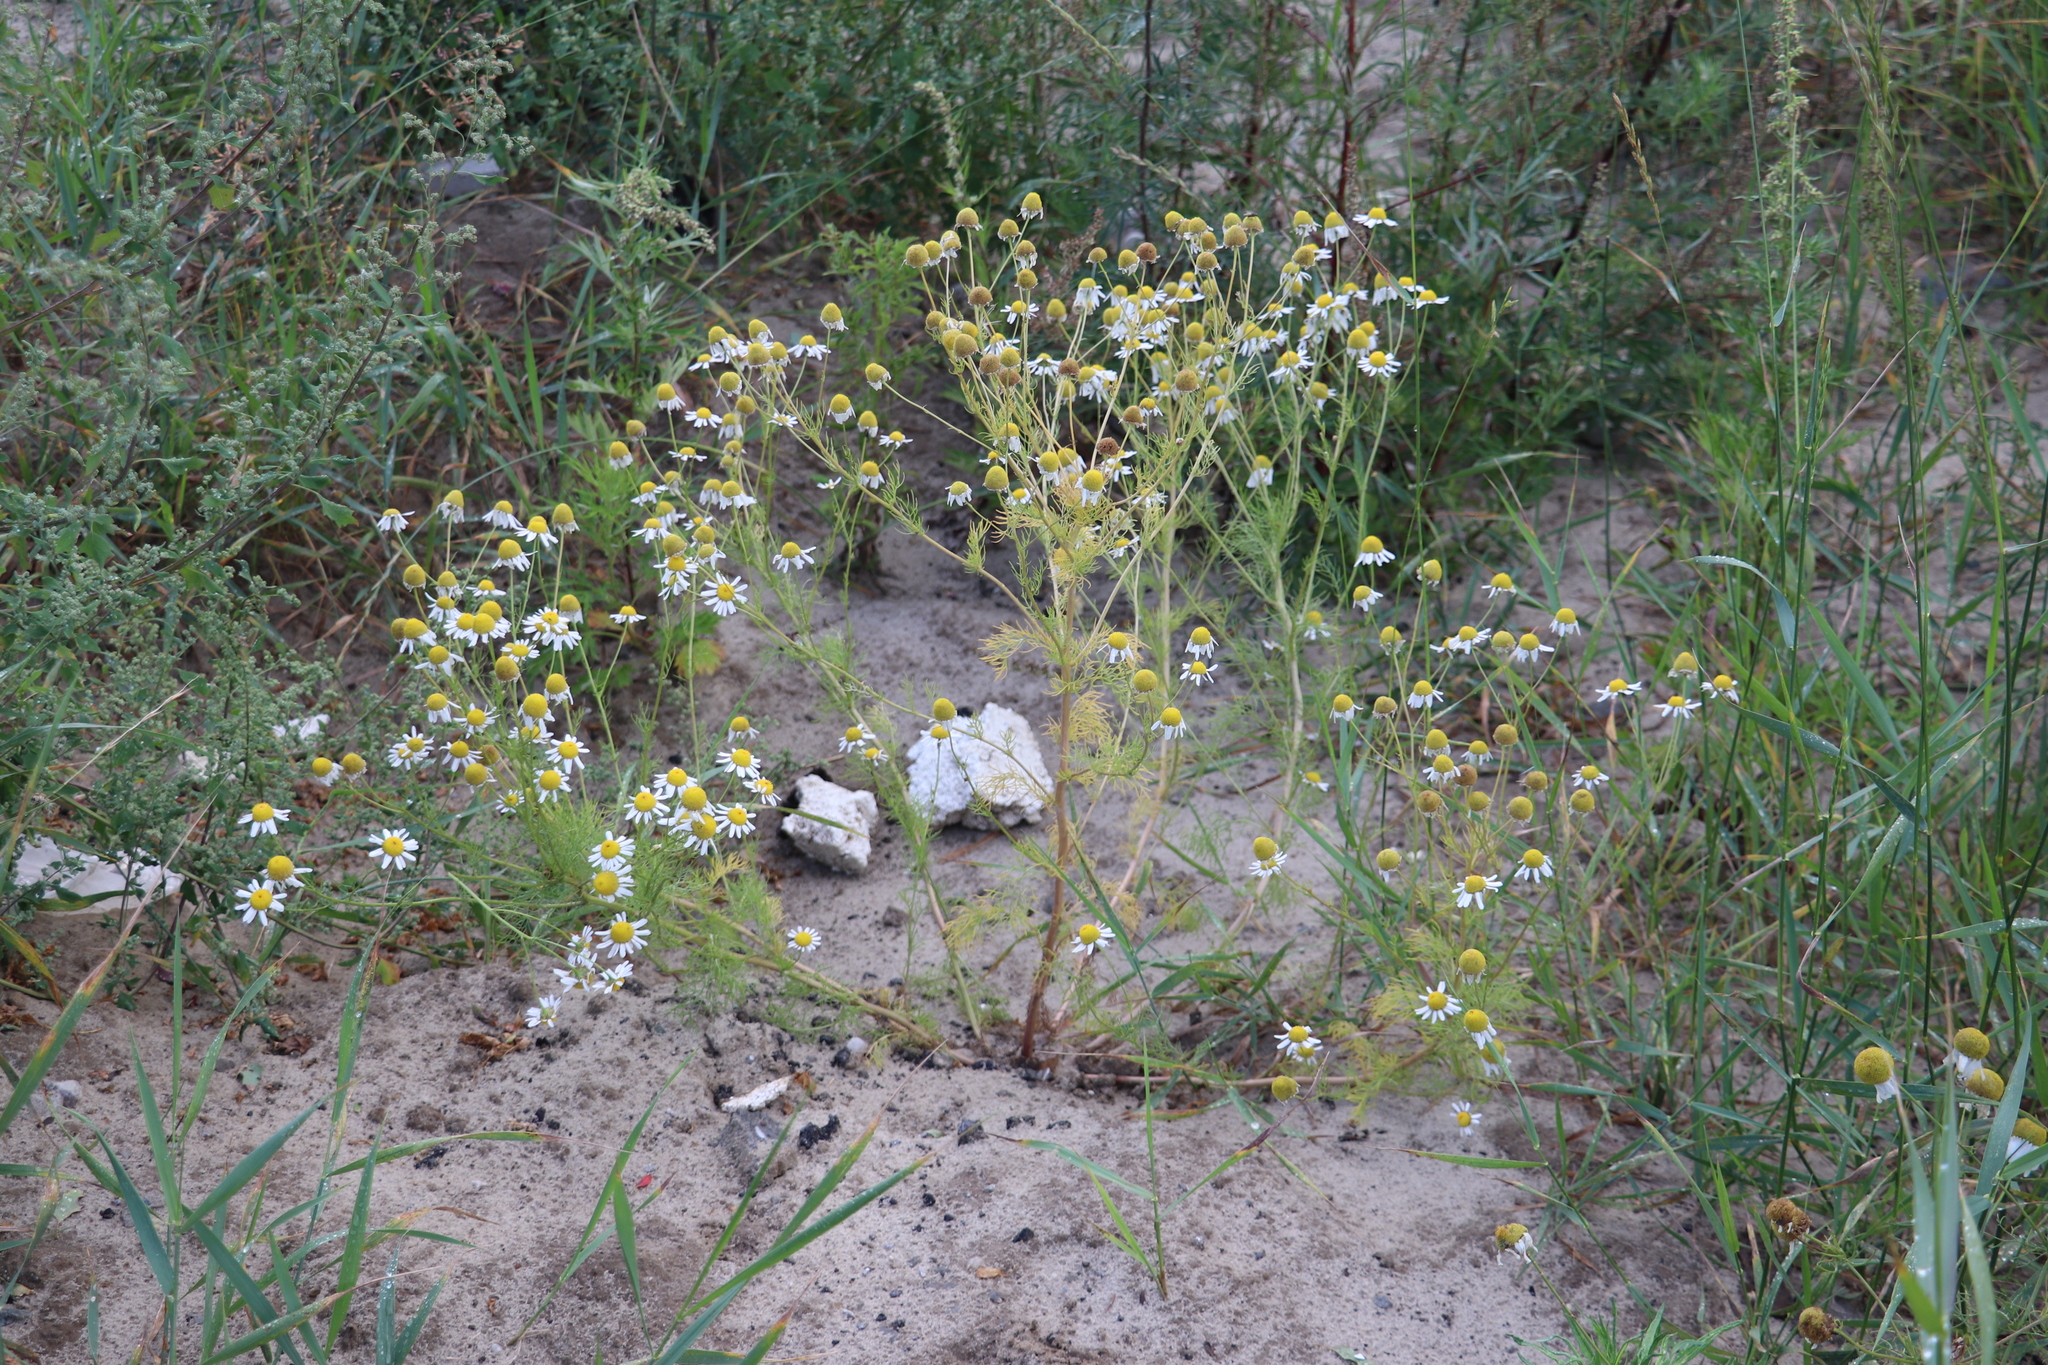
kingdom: Plantae
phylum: Tracheophyta
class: Magnoliopsida
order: Asterales
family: Asteraceae
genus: Tripleurospermum
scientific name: Tripleurospermum inodorum
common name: Scentless mayweed
